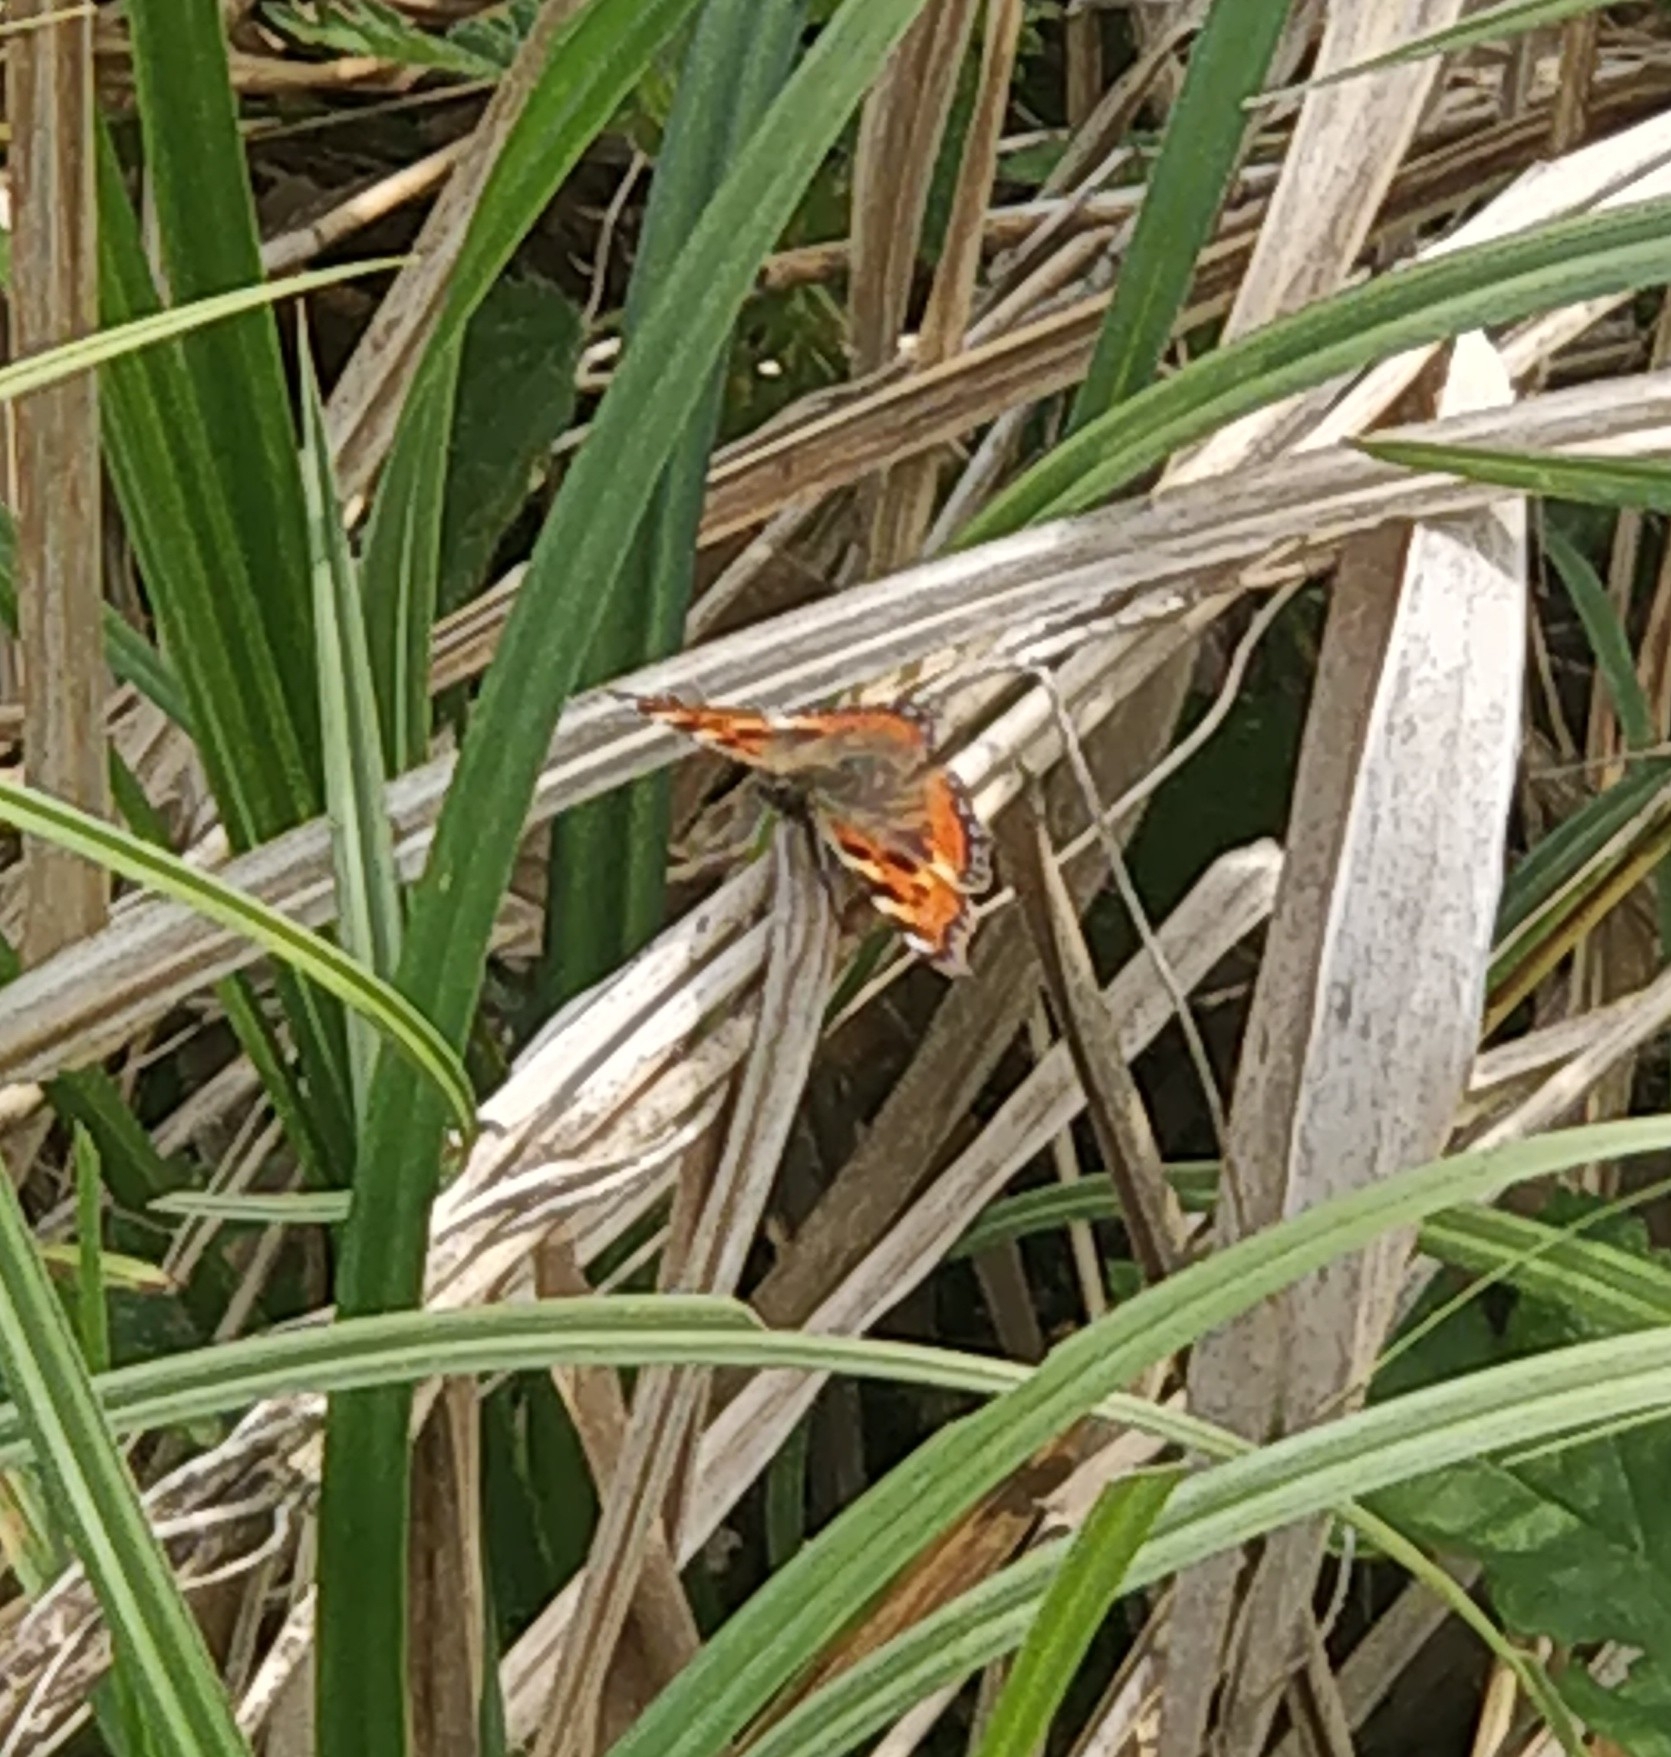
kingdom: Animalia
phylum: Arthropoda
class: Insecta
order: Lepidoptera
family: Nymphalidae
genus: Aglais
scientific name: Aglais urticae
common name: Small tortoiseshell
